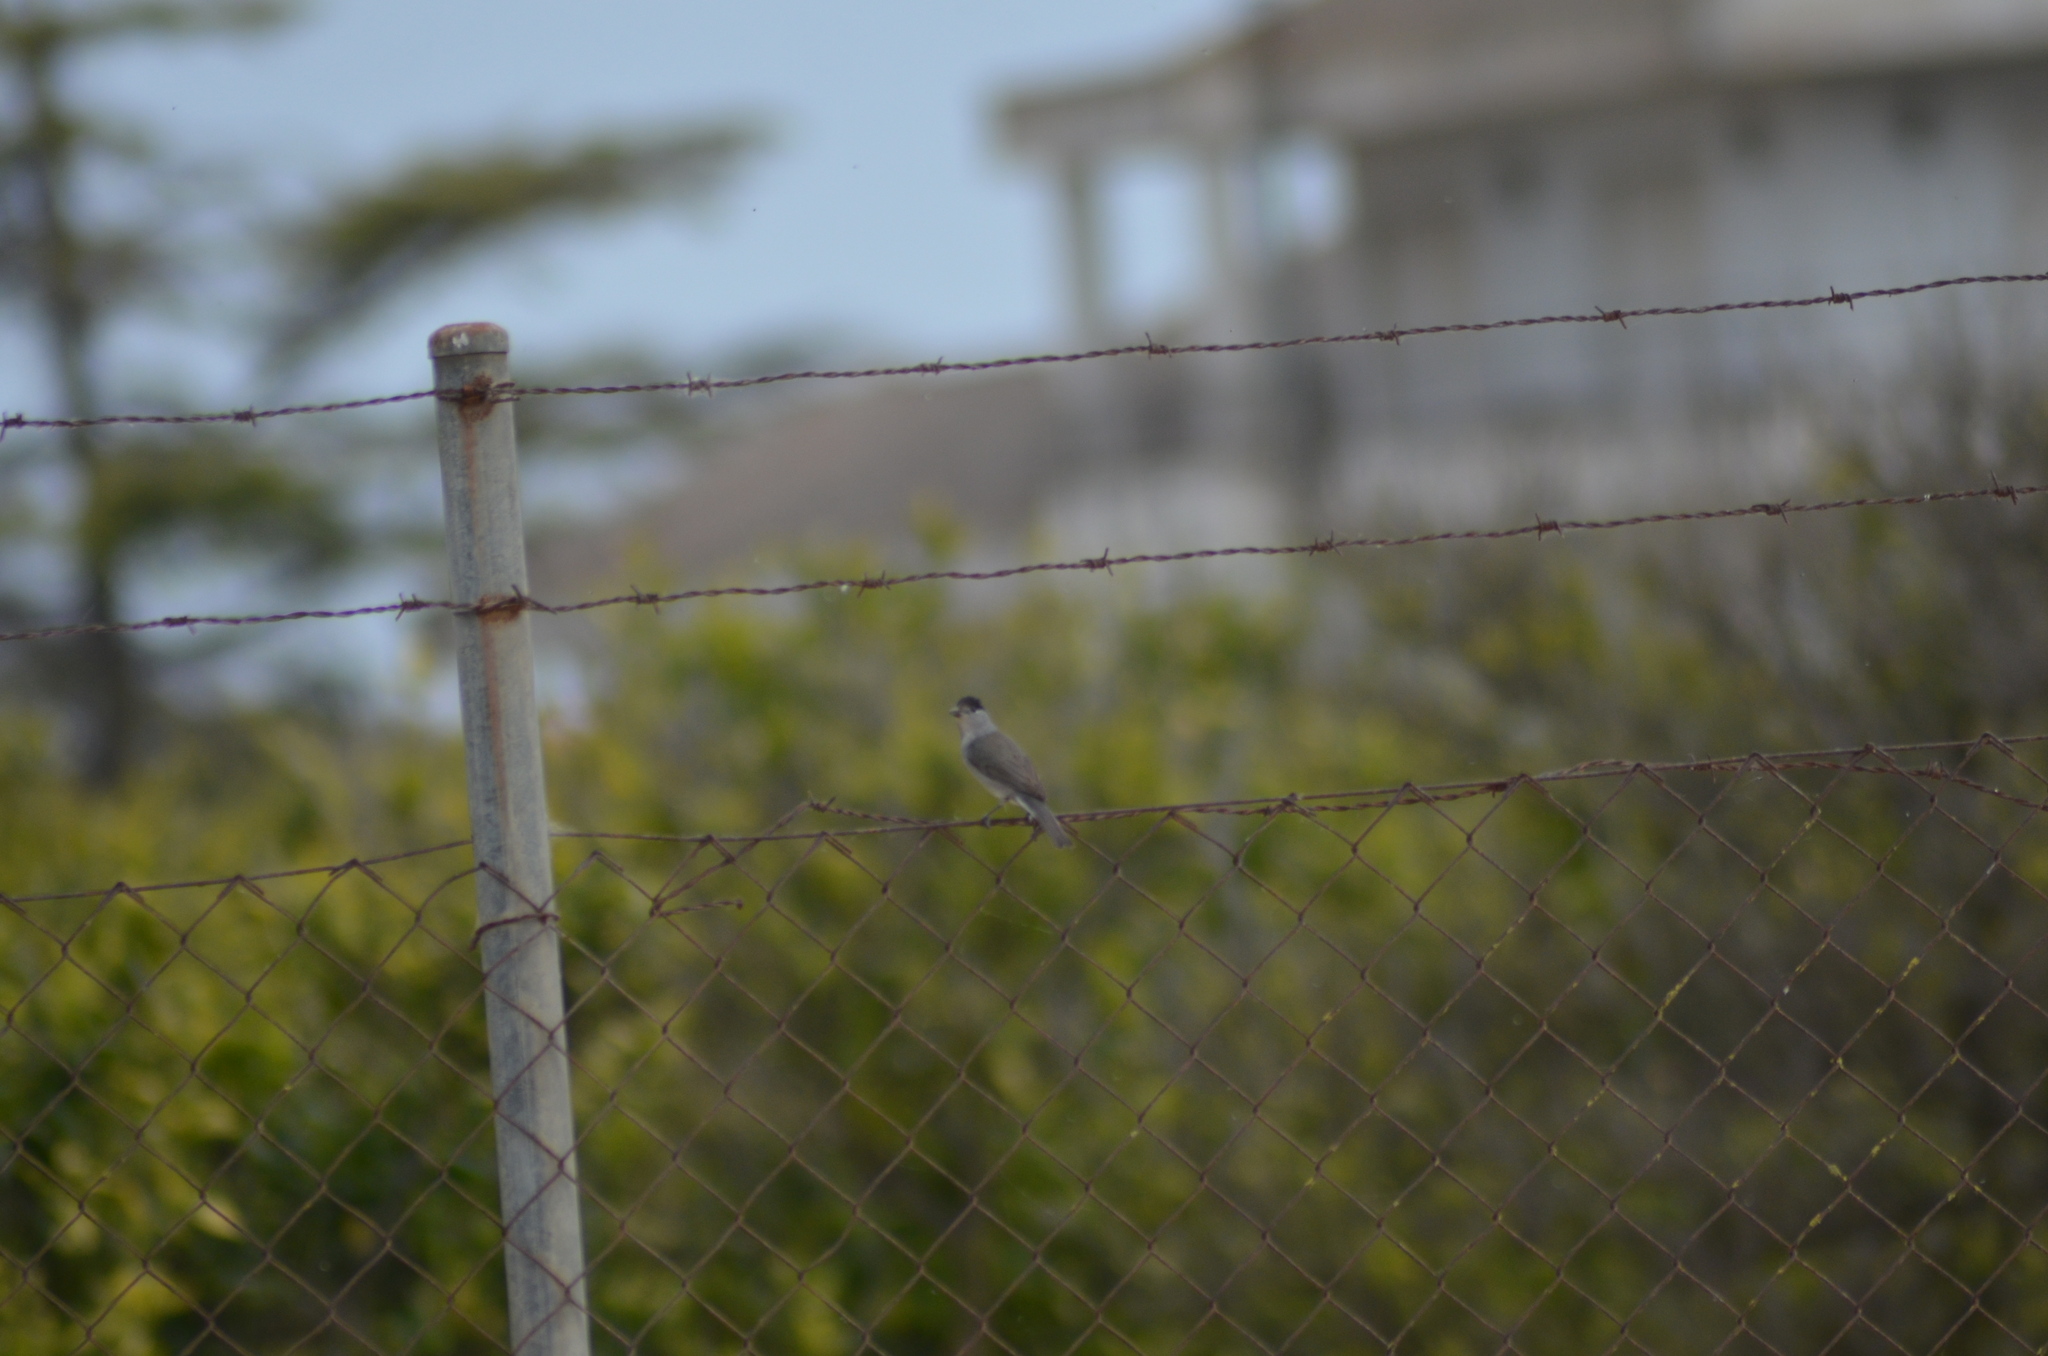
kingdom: Animalia
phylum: Chordata
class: Aves
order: Passeriformes
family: Sylviidae
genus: Sylvia
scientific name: Sylvia atricapilla
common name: Eurasian blackcap
